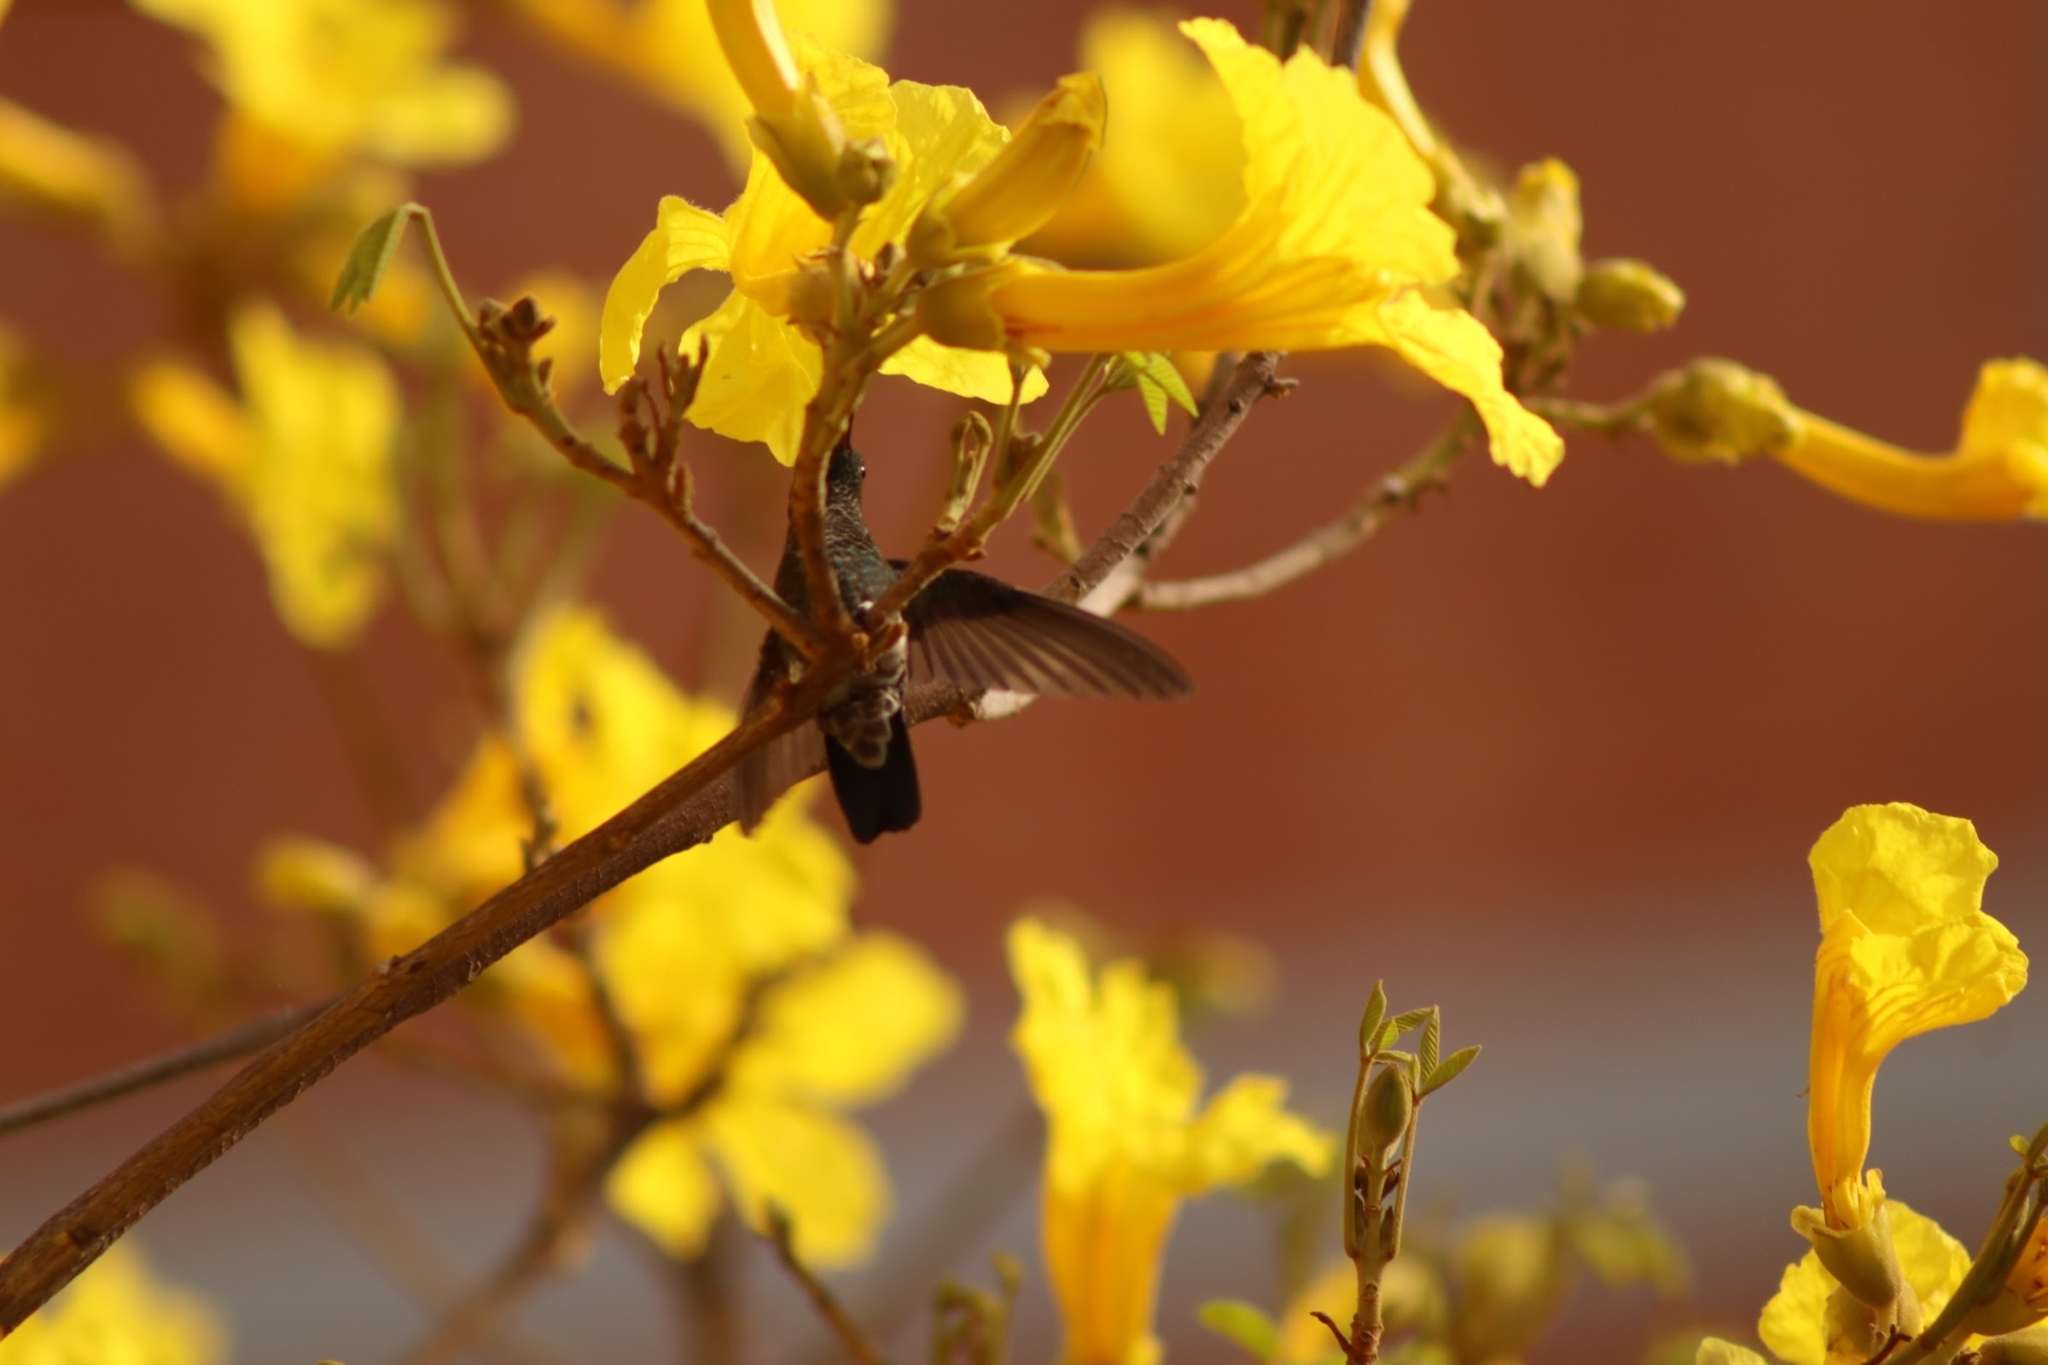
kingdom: Animalia
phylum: Chordata
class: Aves
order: Apodiformes
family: Trochilidae
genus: Saucerottia
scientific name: Saucerottia saucerottei
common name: Steely-vented hummingbird
